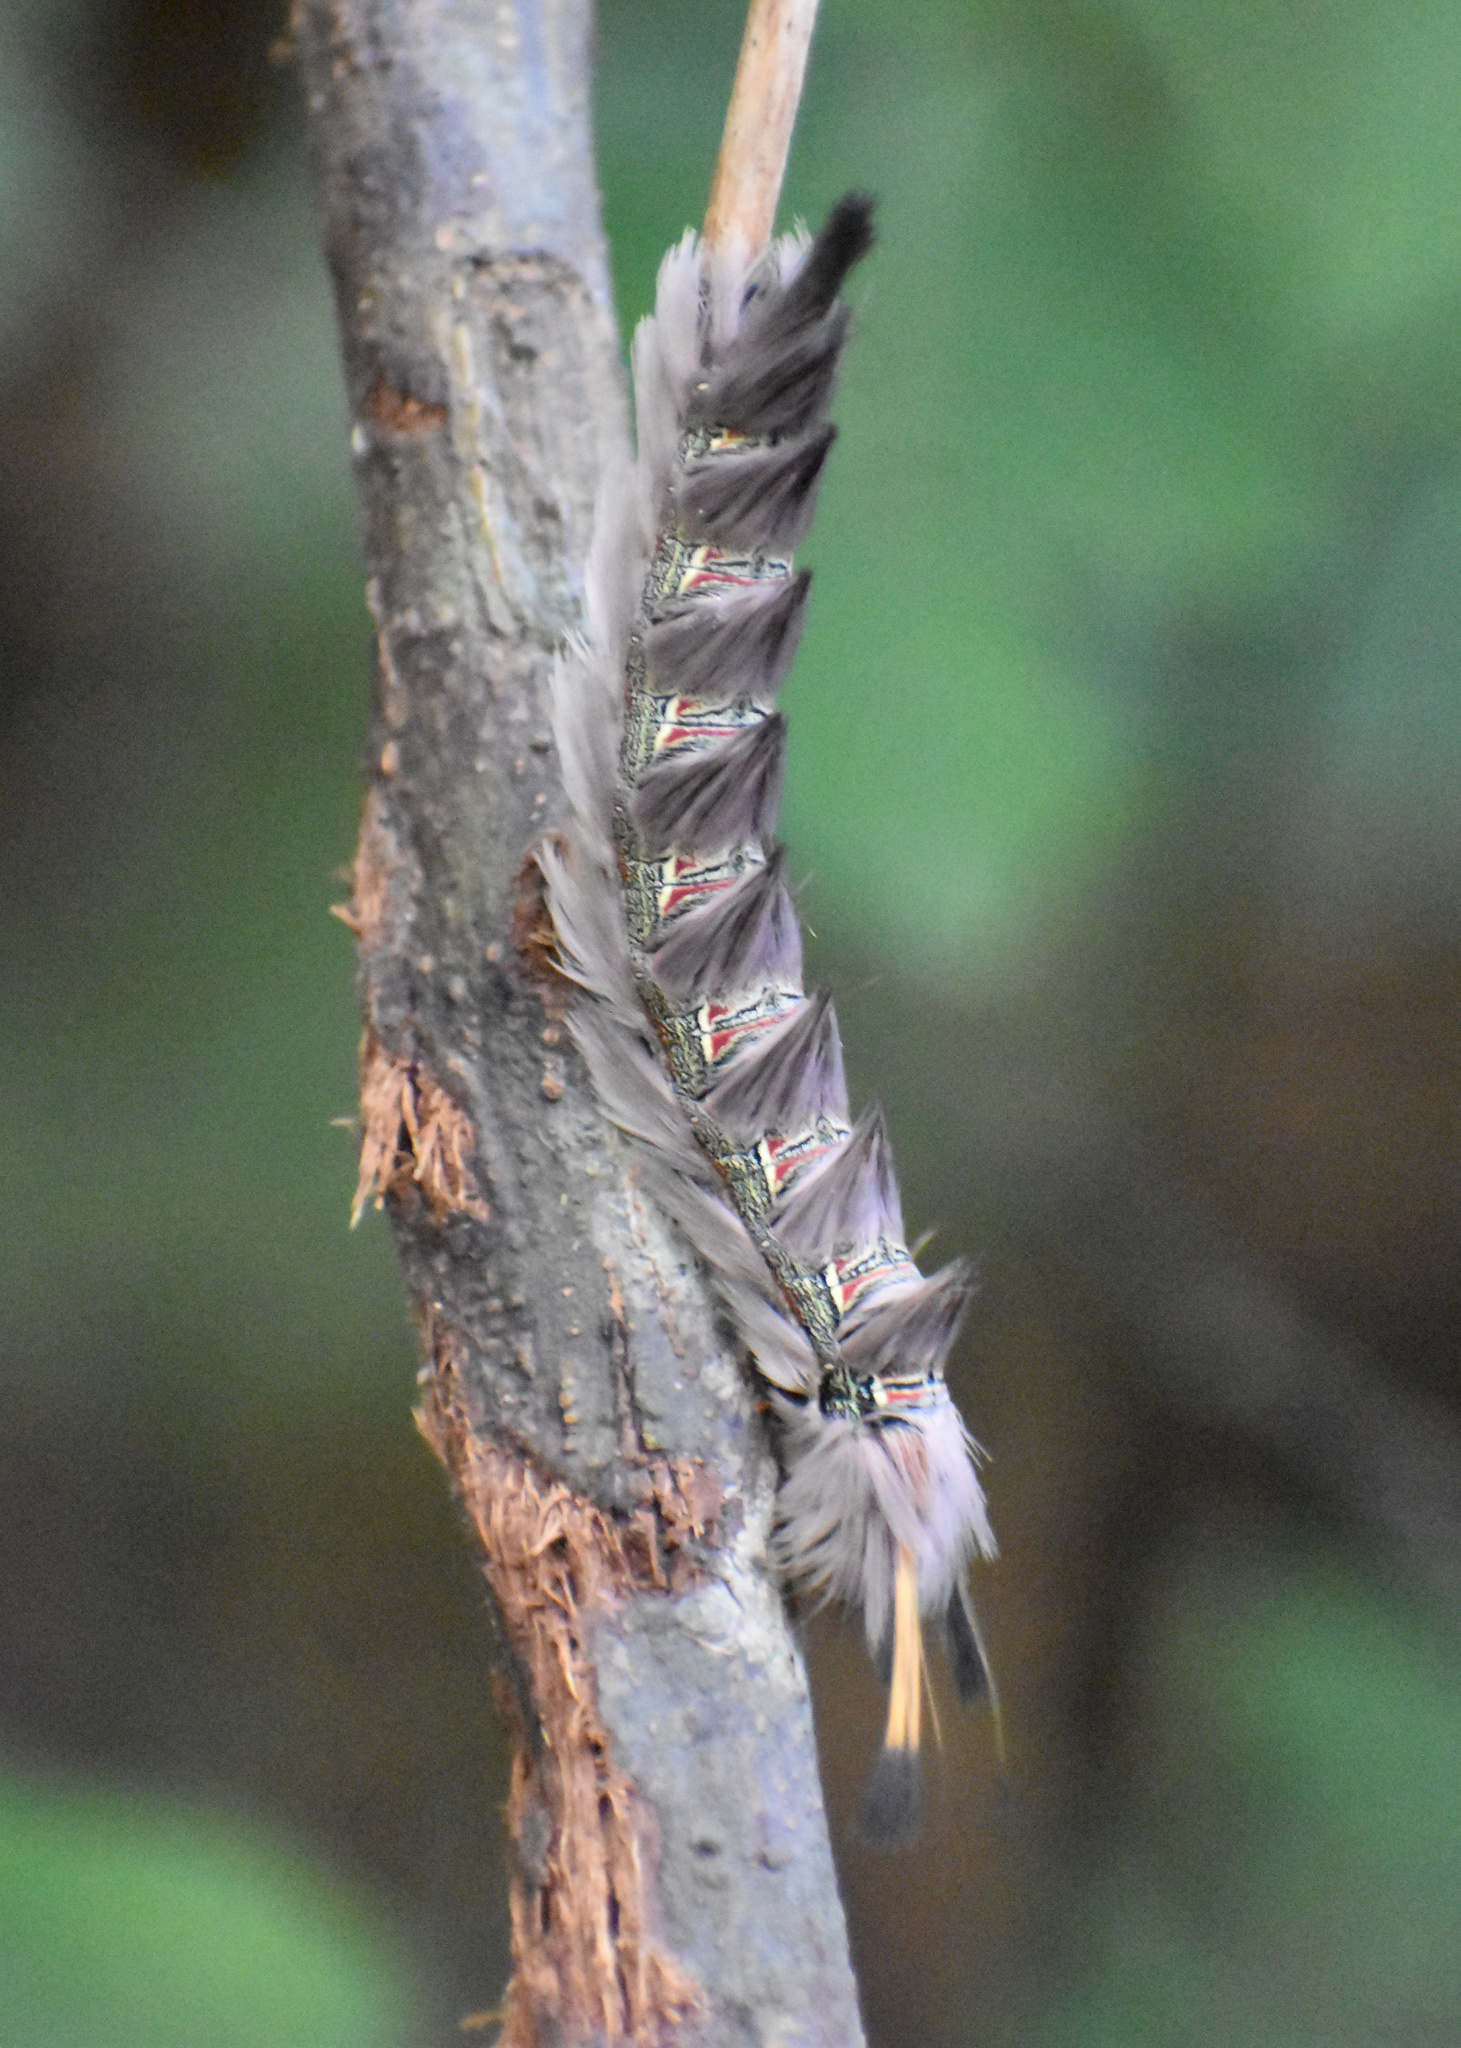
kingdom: Animalia
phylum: Arthropoda
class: Insecta
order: Lepidoptera
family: Eupterotidae
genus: Lichenopteryx
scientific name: Lichenopteryx despecta
